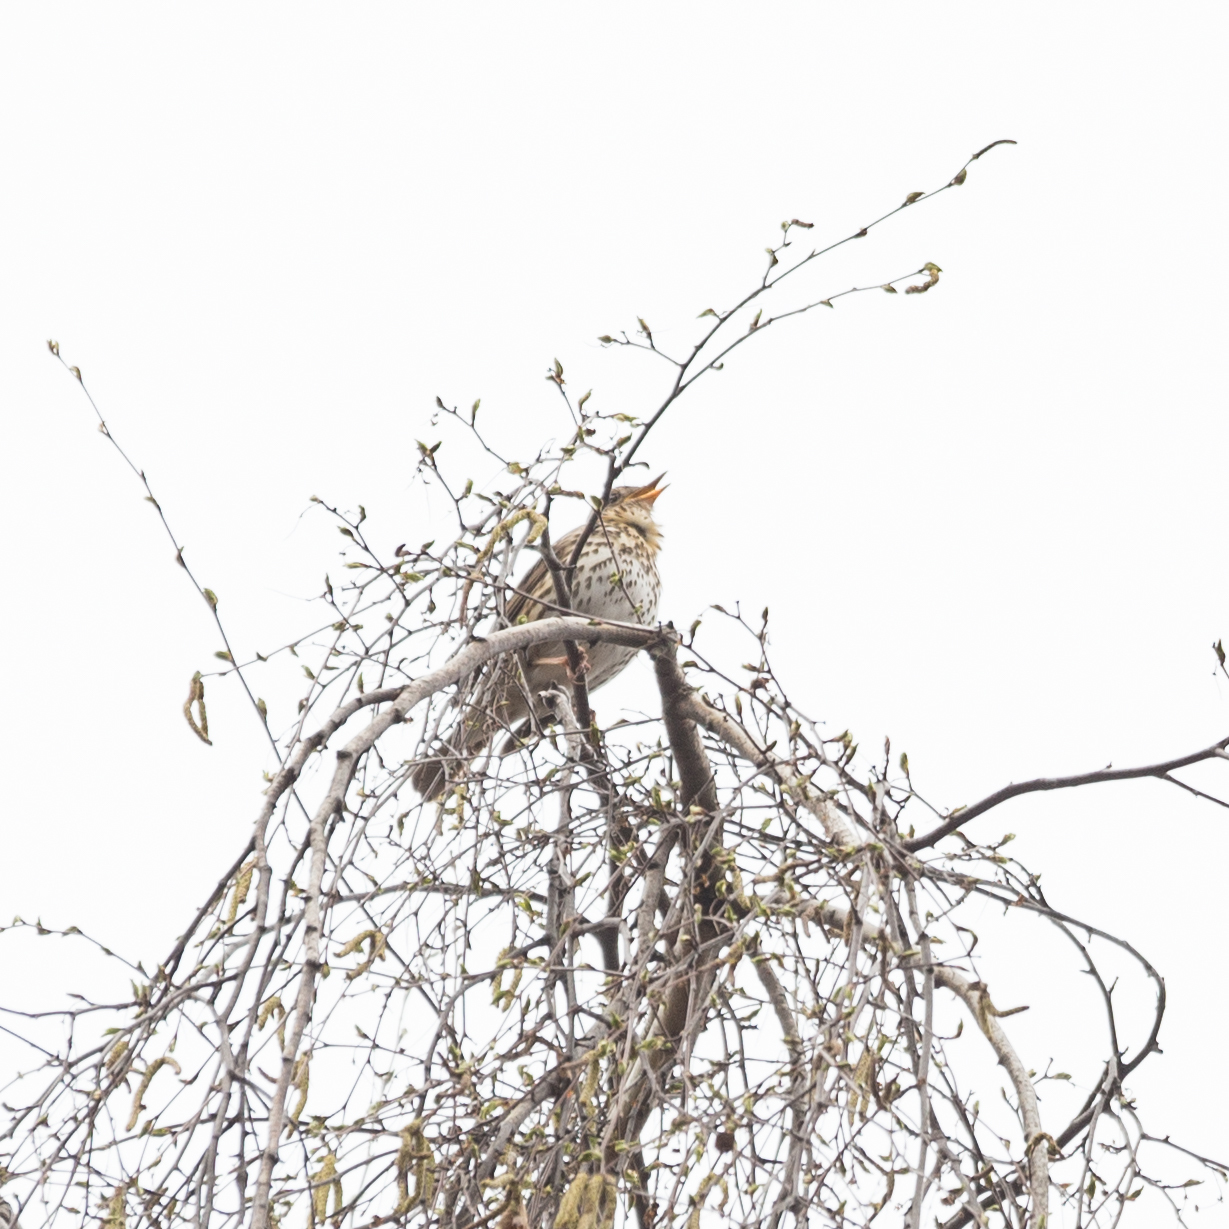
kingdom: Animalia
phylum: Chordata
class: Aves
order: Passeriformes
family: Turdidae
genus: Turdus
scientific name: Turdus philomelos
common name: Song thrush
